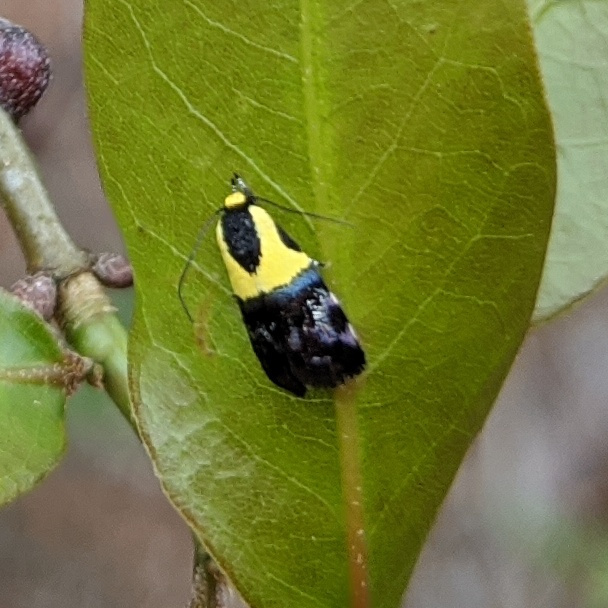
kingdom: Animalia
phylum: Arthropoda
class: Insecta
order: Lepidoptera
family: Depressariidae
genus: Rectiostoma
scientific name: Rectiostoma xanthobasis
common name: Yellow-vested moth
